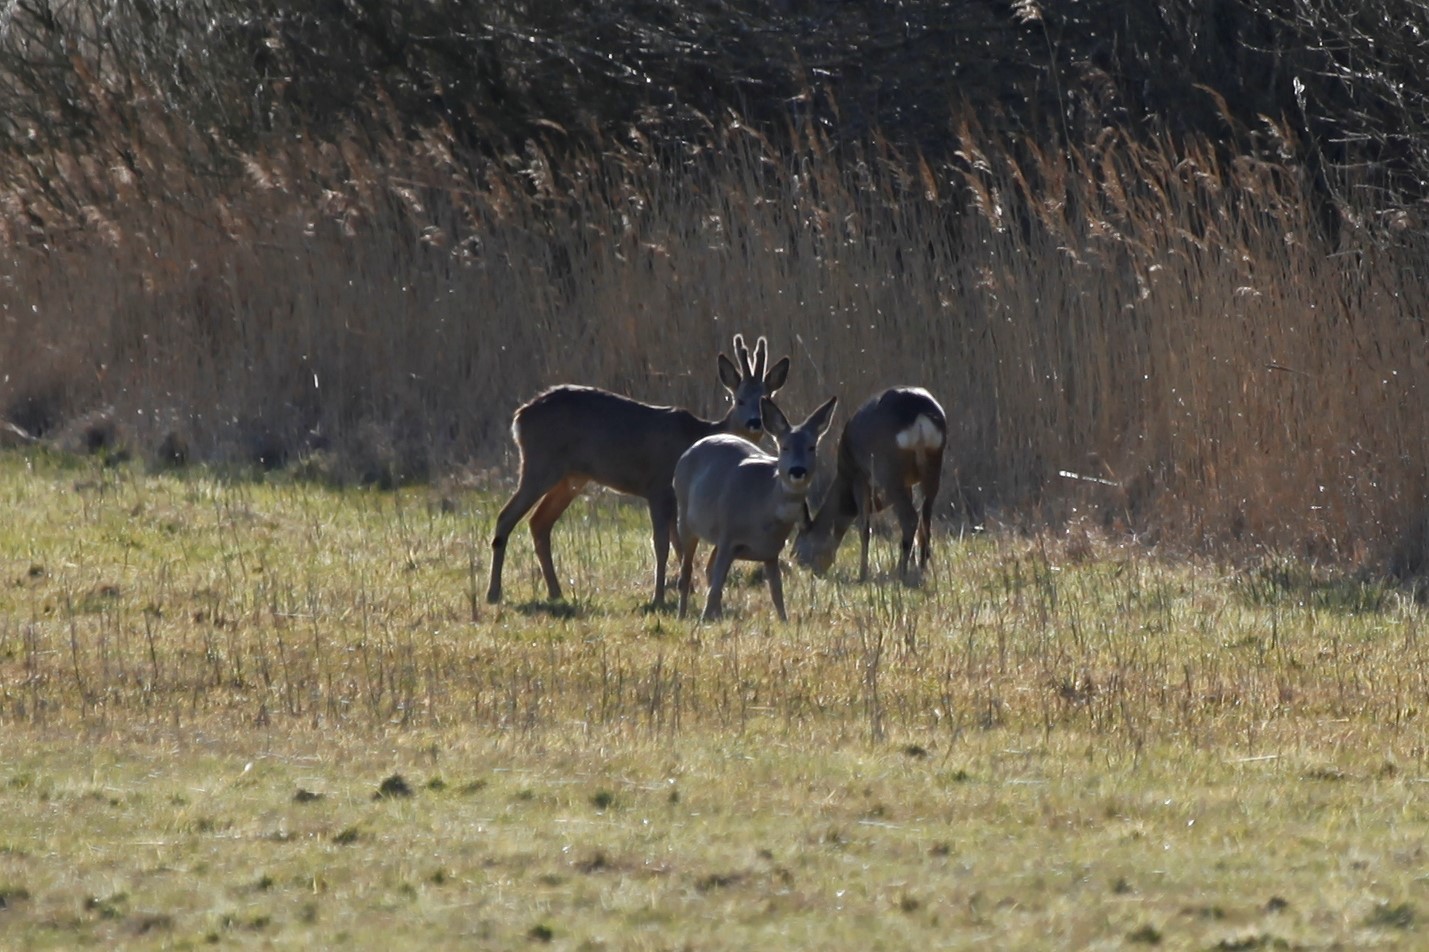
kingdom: Animalia
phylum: Chordata
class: Mammalia
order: Artiodactyla
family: Cervidae
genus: Capreolus
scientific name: Capreolus capreolus
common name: Western roe deer
